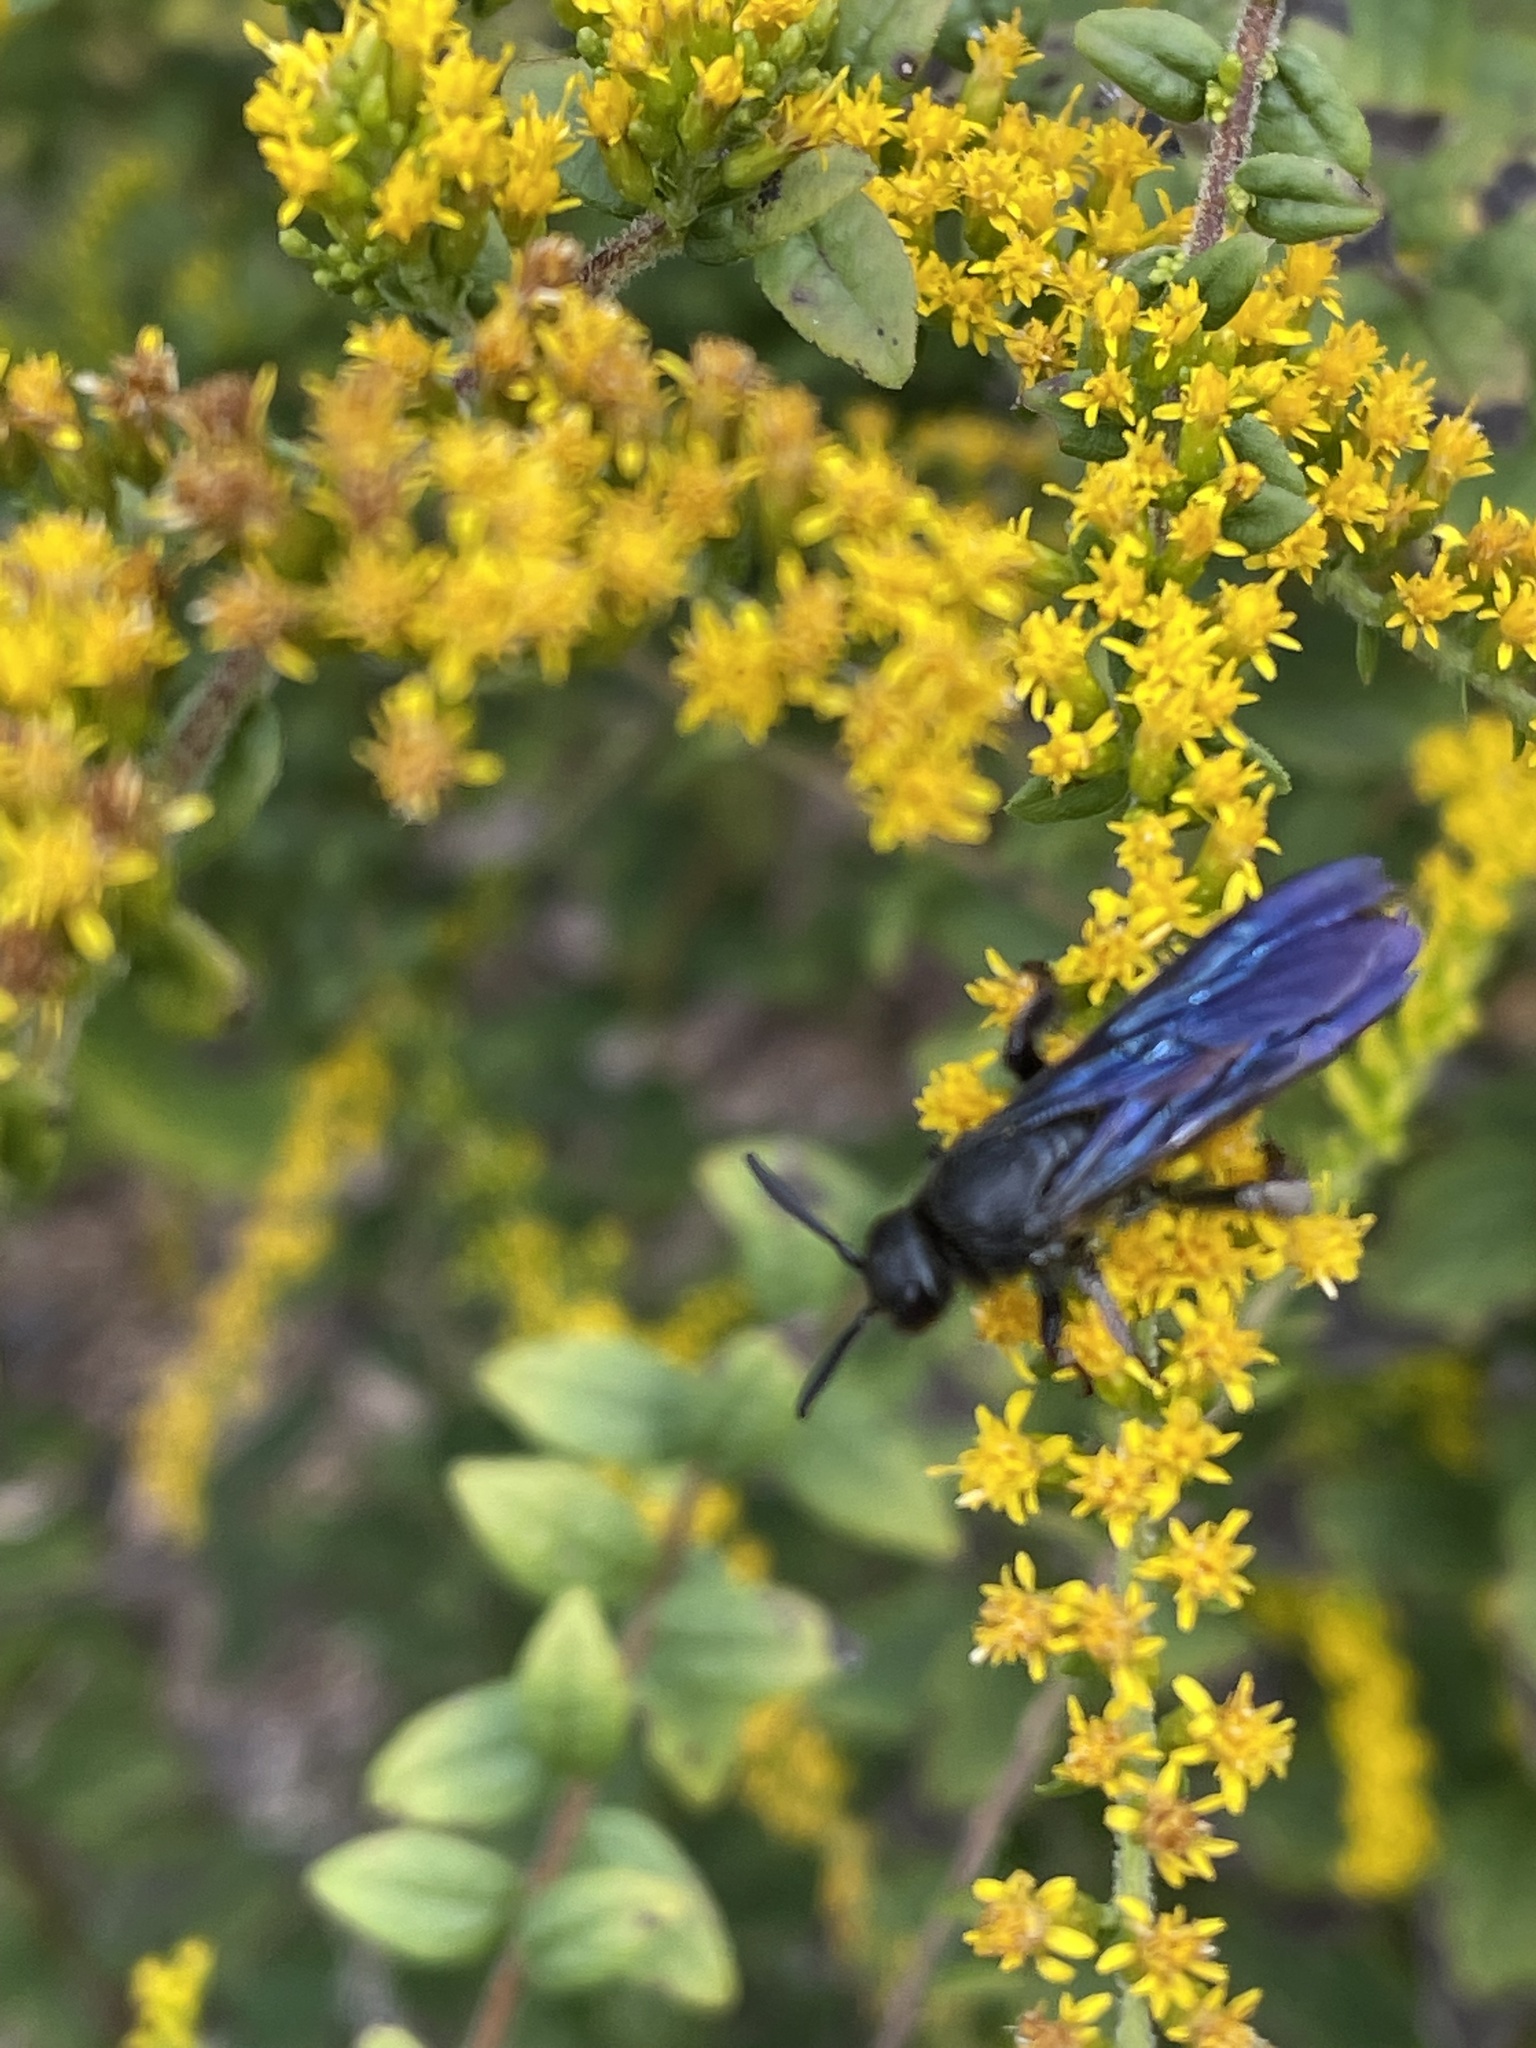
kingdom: Animalia
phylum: Arthropoda
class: Insecta
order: Hymenoptera
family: Scoliidae
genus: Scolia
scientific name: Scolia dubia
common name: Blue-winged scoliid wasp
